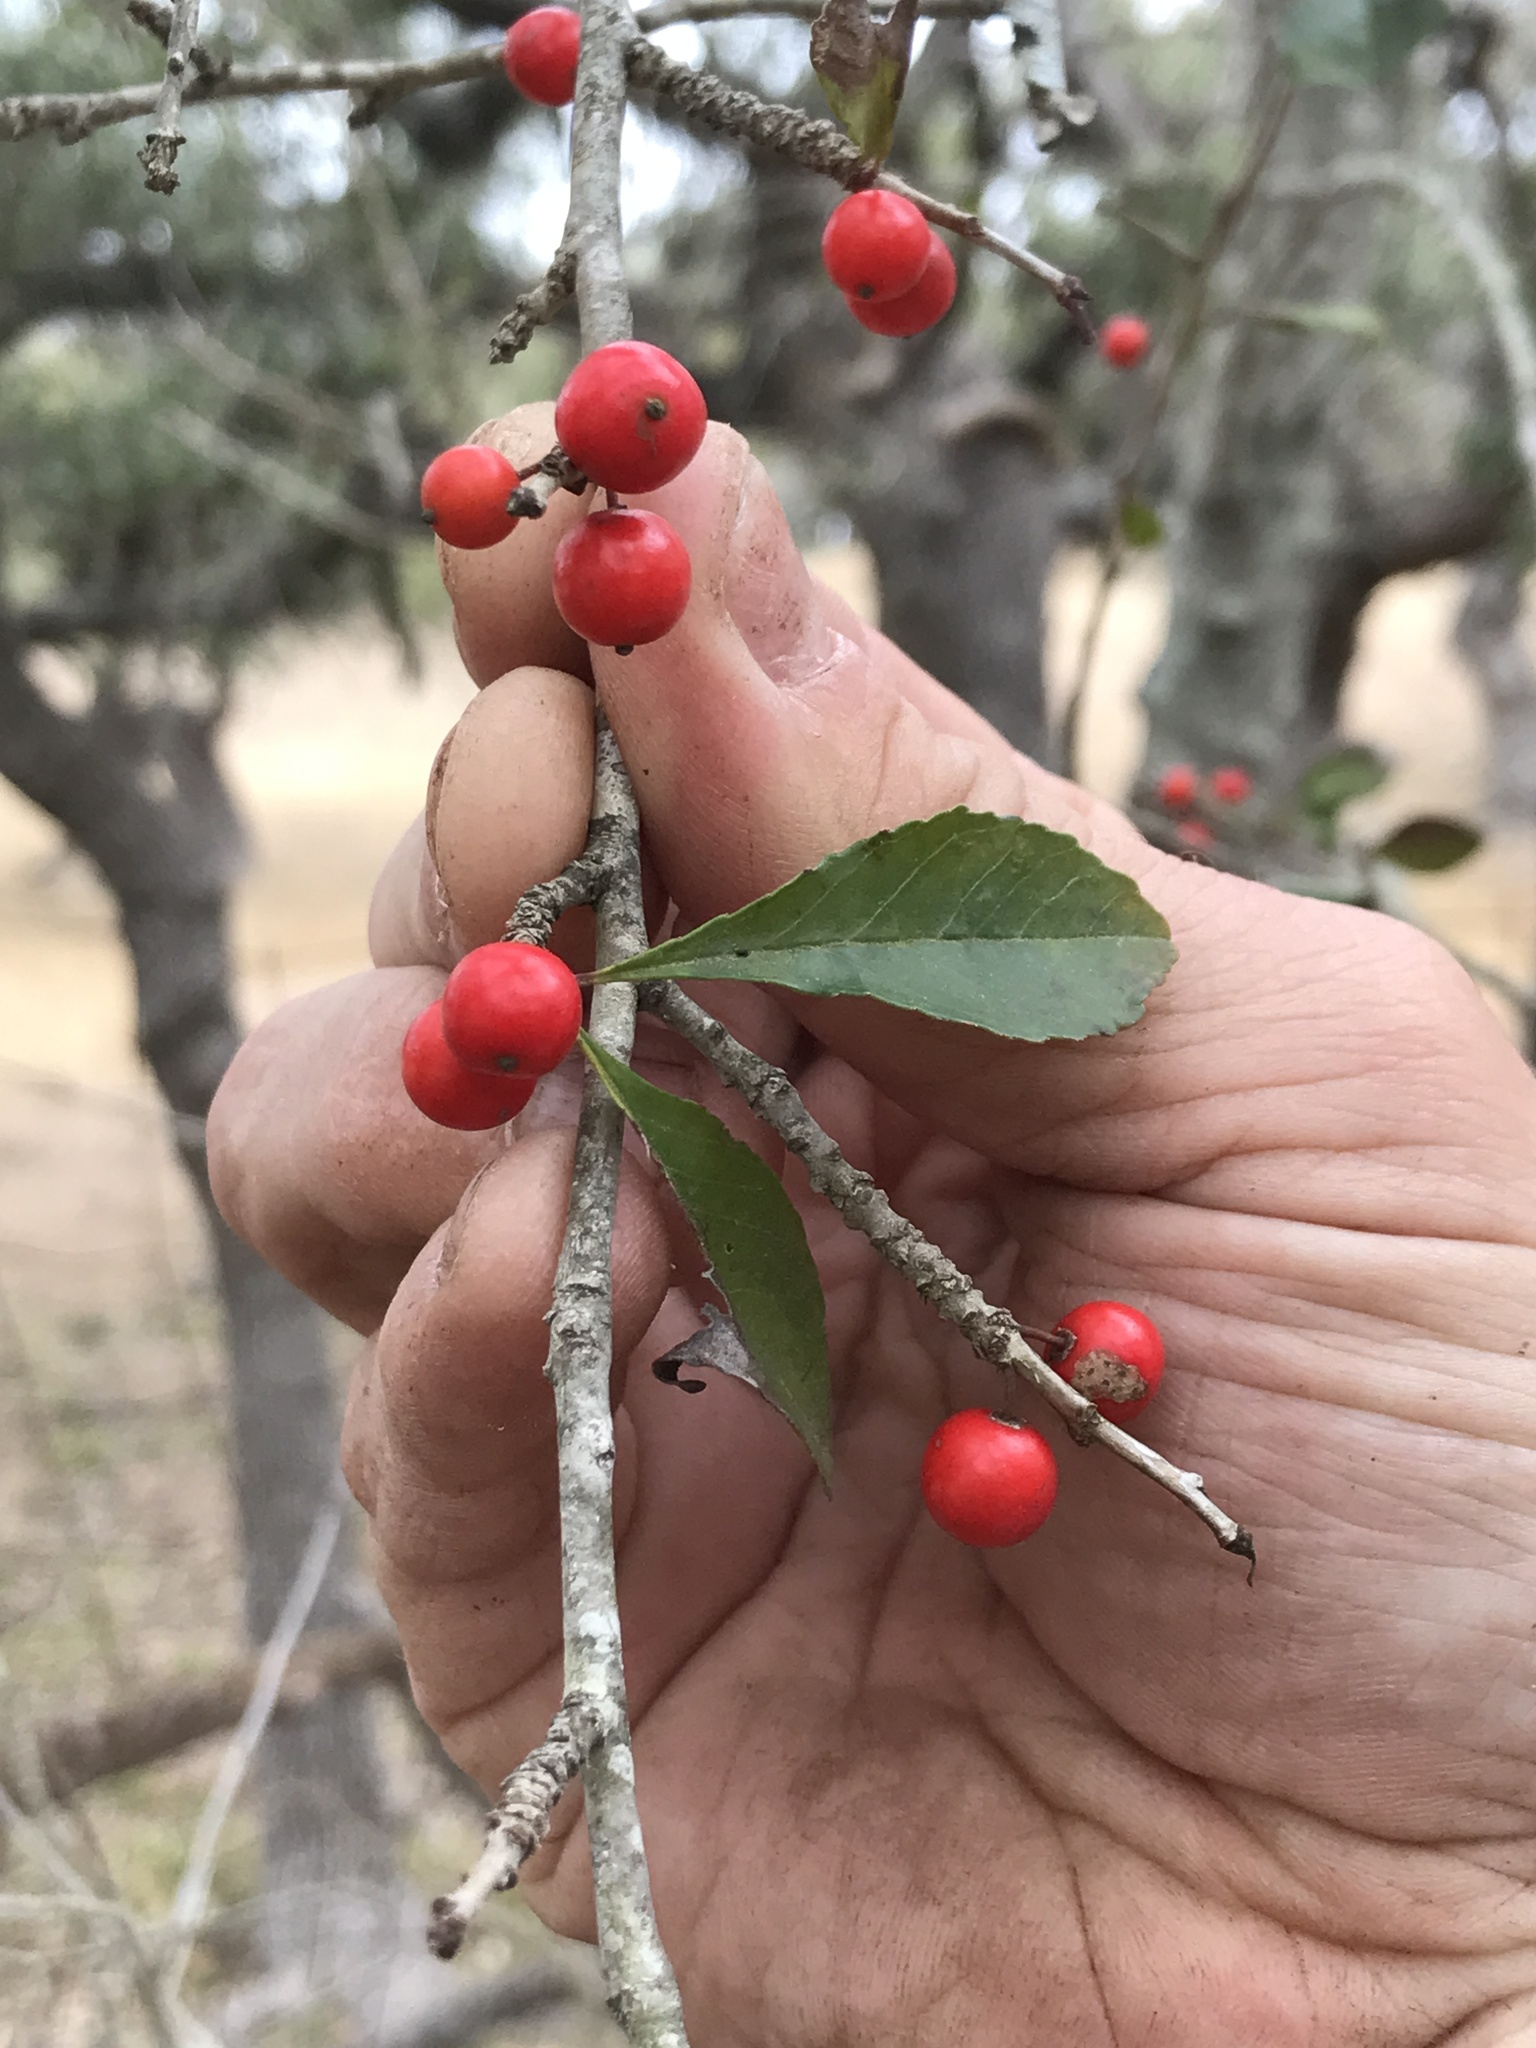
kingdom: Plantae
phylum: Tracheophyta
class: Magnoliopsida
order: Aquifoliales
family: Aquifoliaceae
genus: Ilex
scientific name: Ilex decidua
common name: Possum-haw
